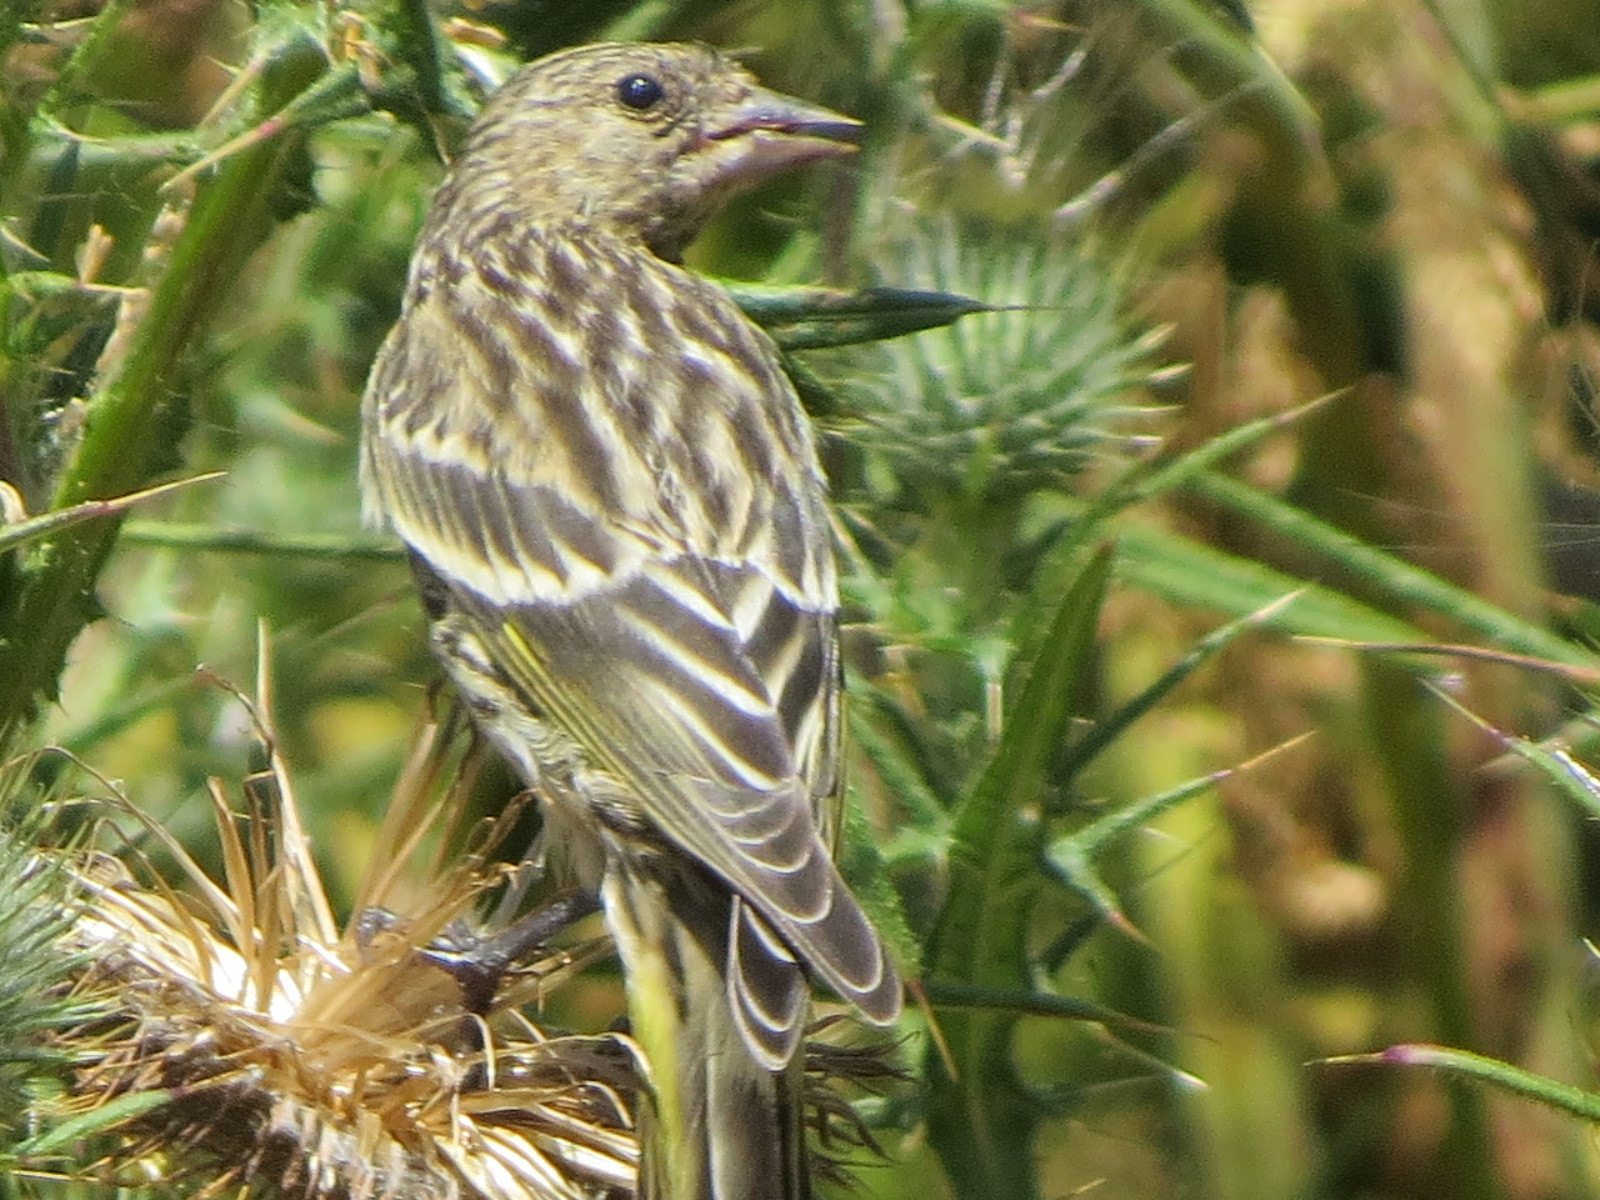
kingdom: Animalia
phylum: Chordata
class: Aves
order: Passeriformes
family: Fringillidae
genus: Spinus
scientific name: Spinus pinus
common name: Pine siskin
